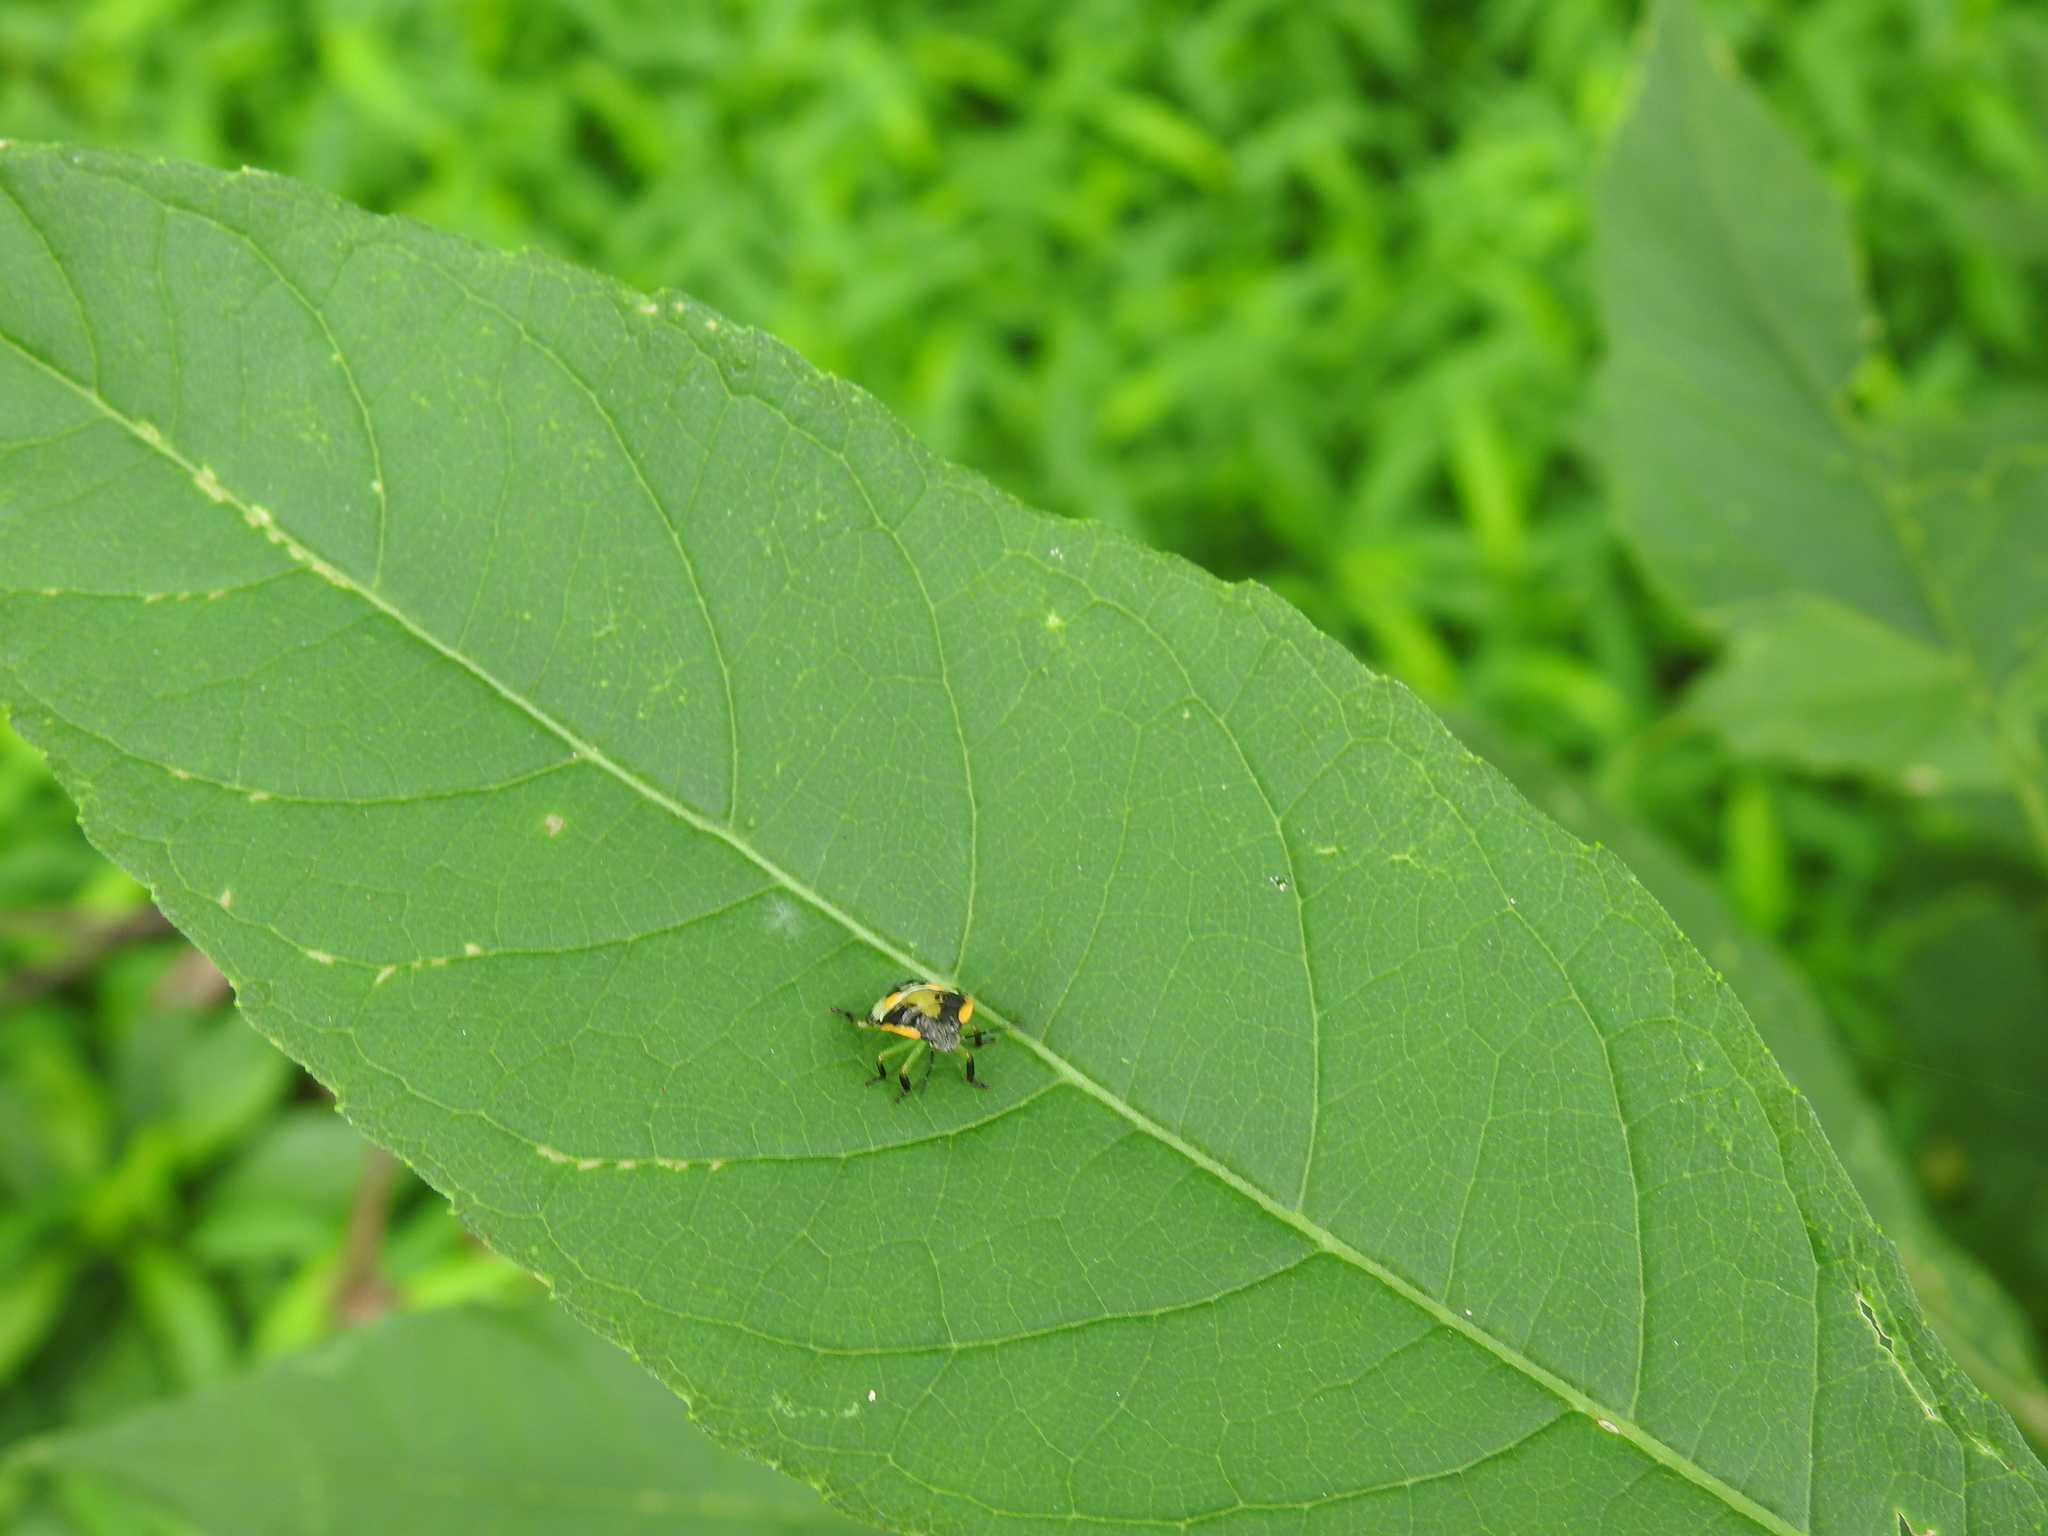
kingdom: Animalia
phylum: Arthropoda
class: Insecta
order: Hemiptera
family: Pentatomidae
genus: Chinavia
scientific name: Chinavia hilaris
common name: Green stink bug
